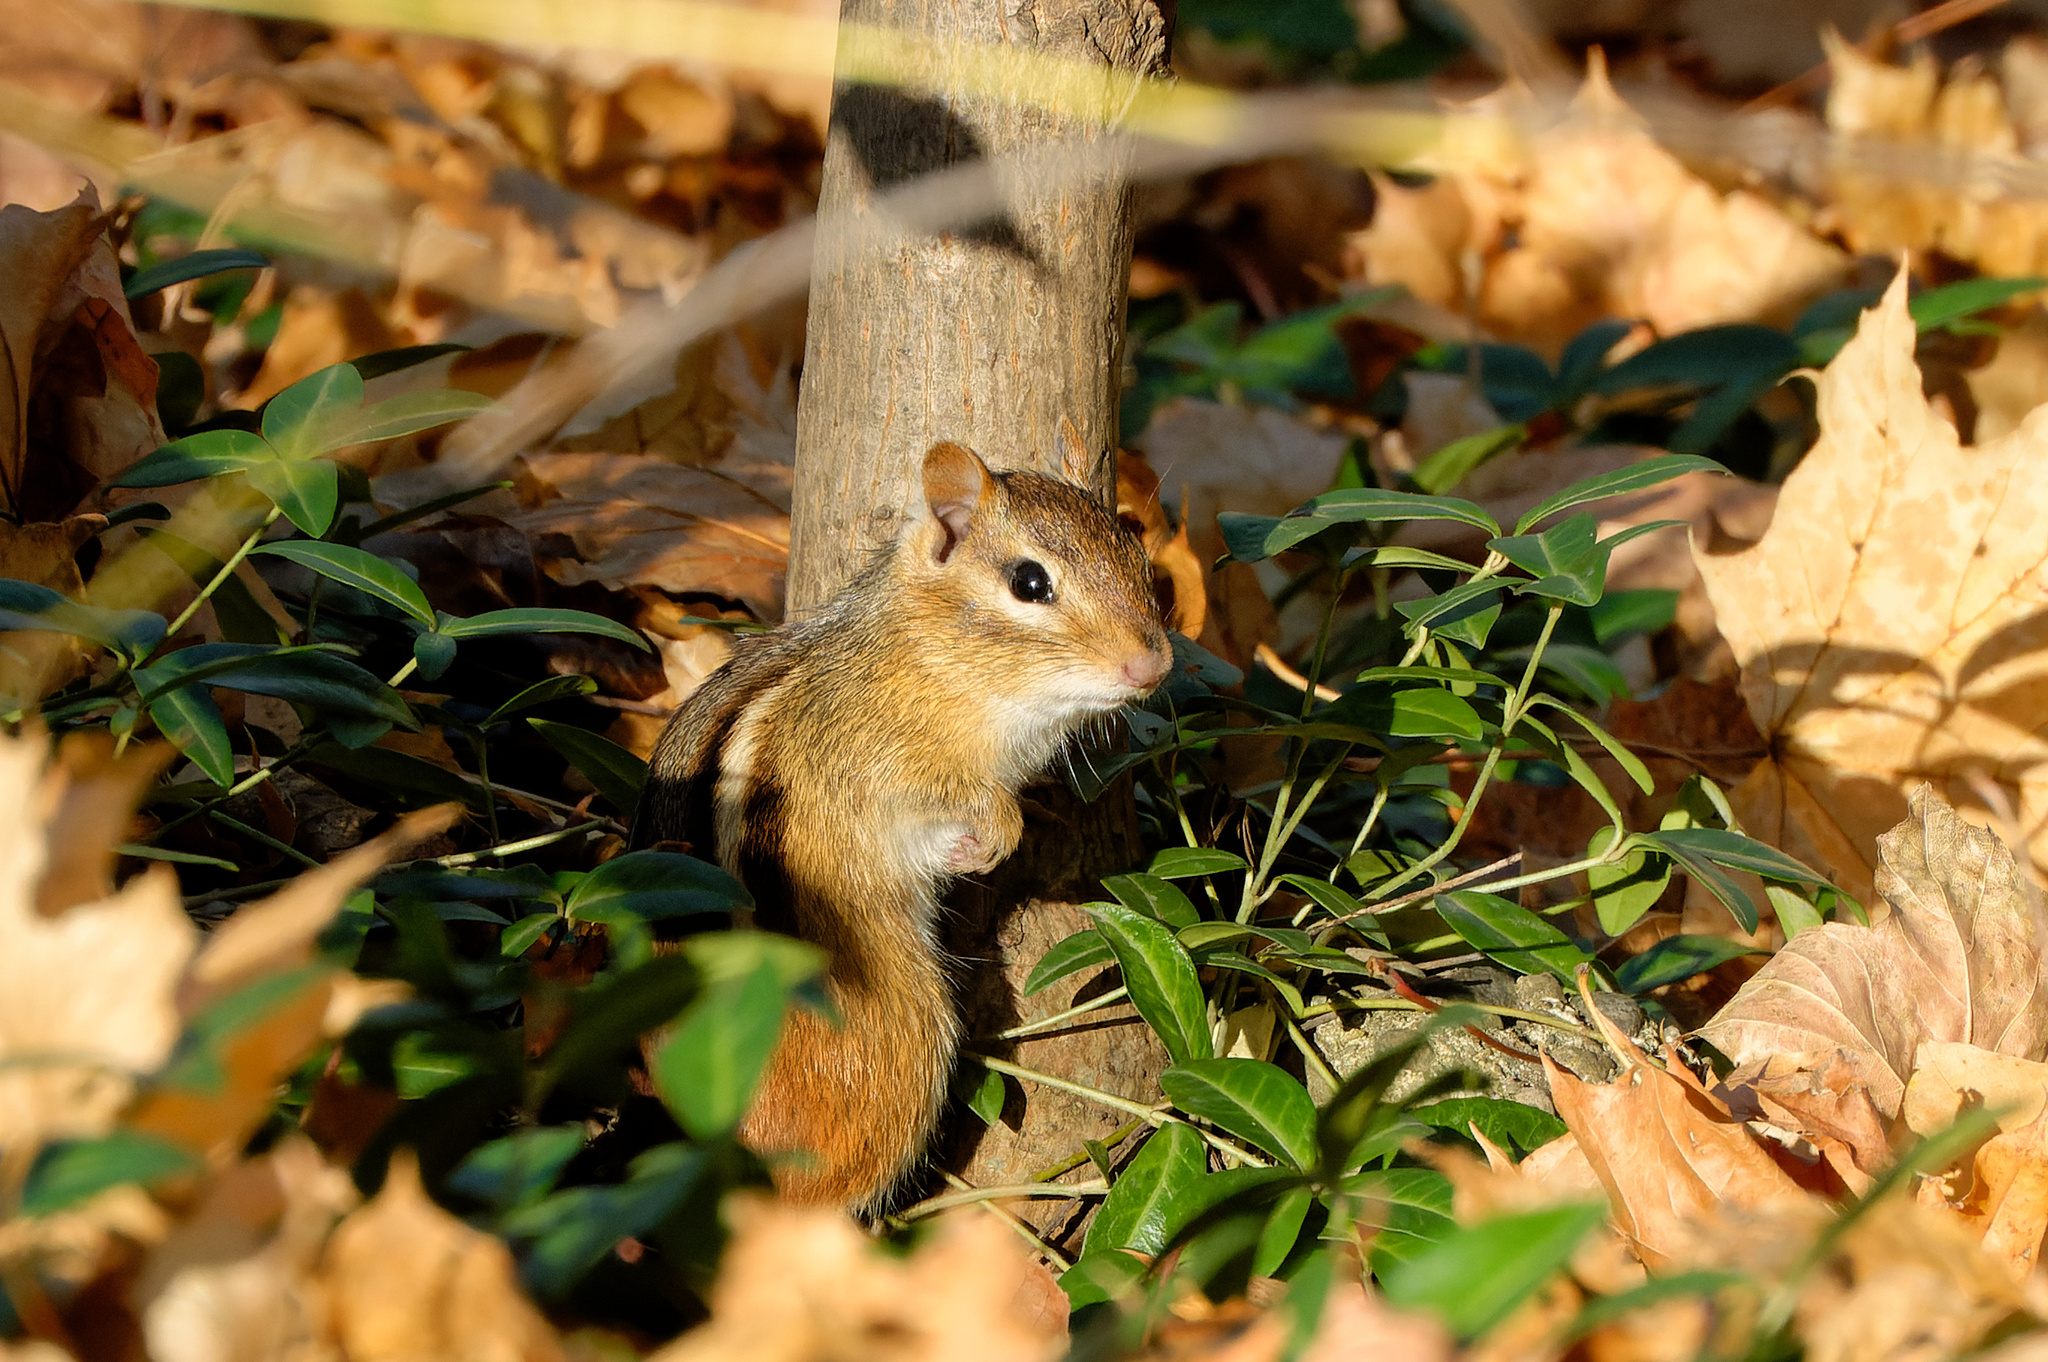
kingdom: Animalia
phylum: Chordata
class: Mammalia
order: Rodentia
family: Sciuridae
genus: Tamias
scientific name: Tamias striatus
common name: Eastern chipmunk
